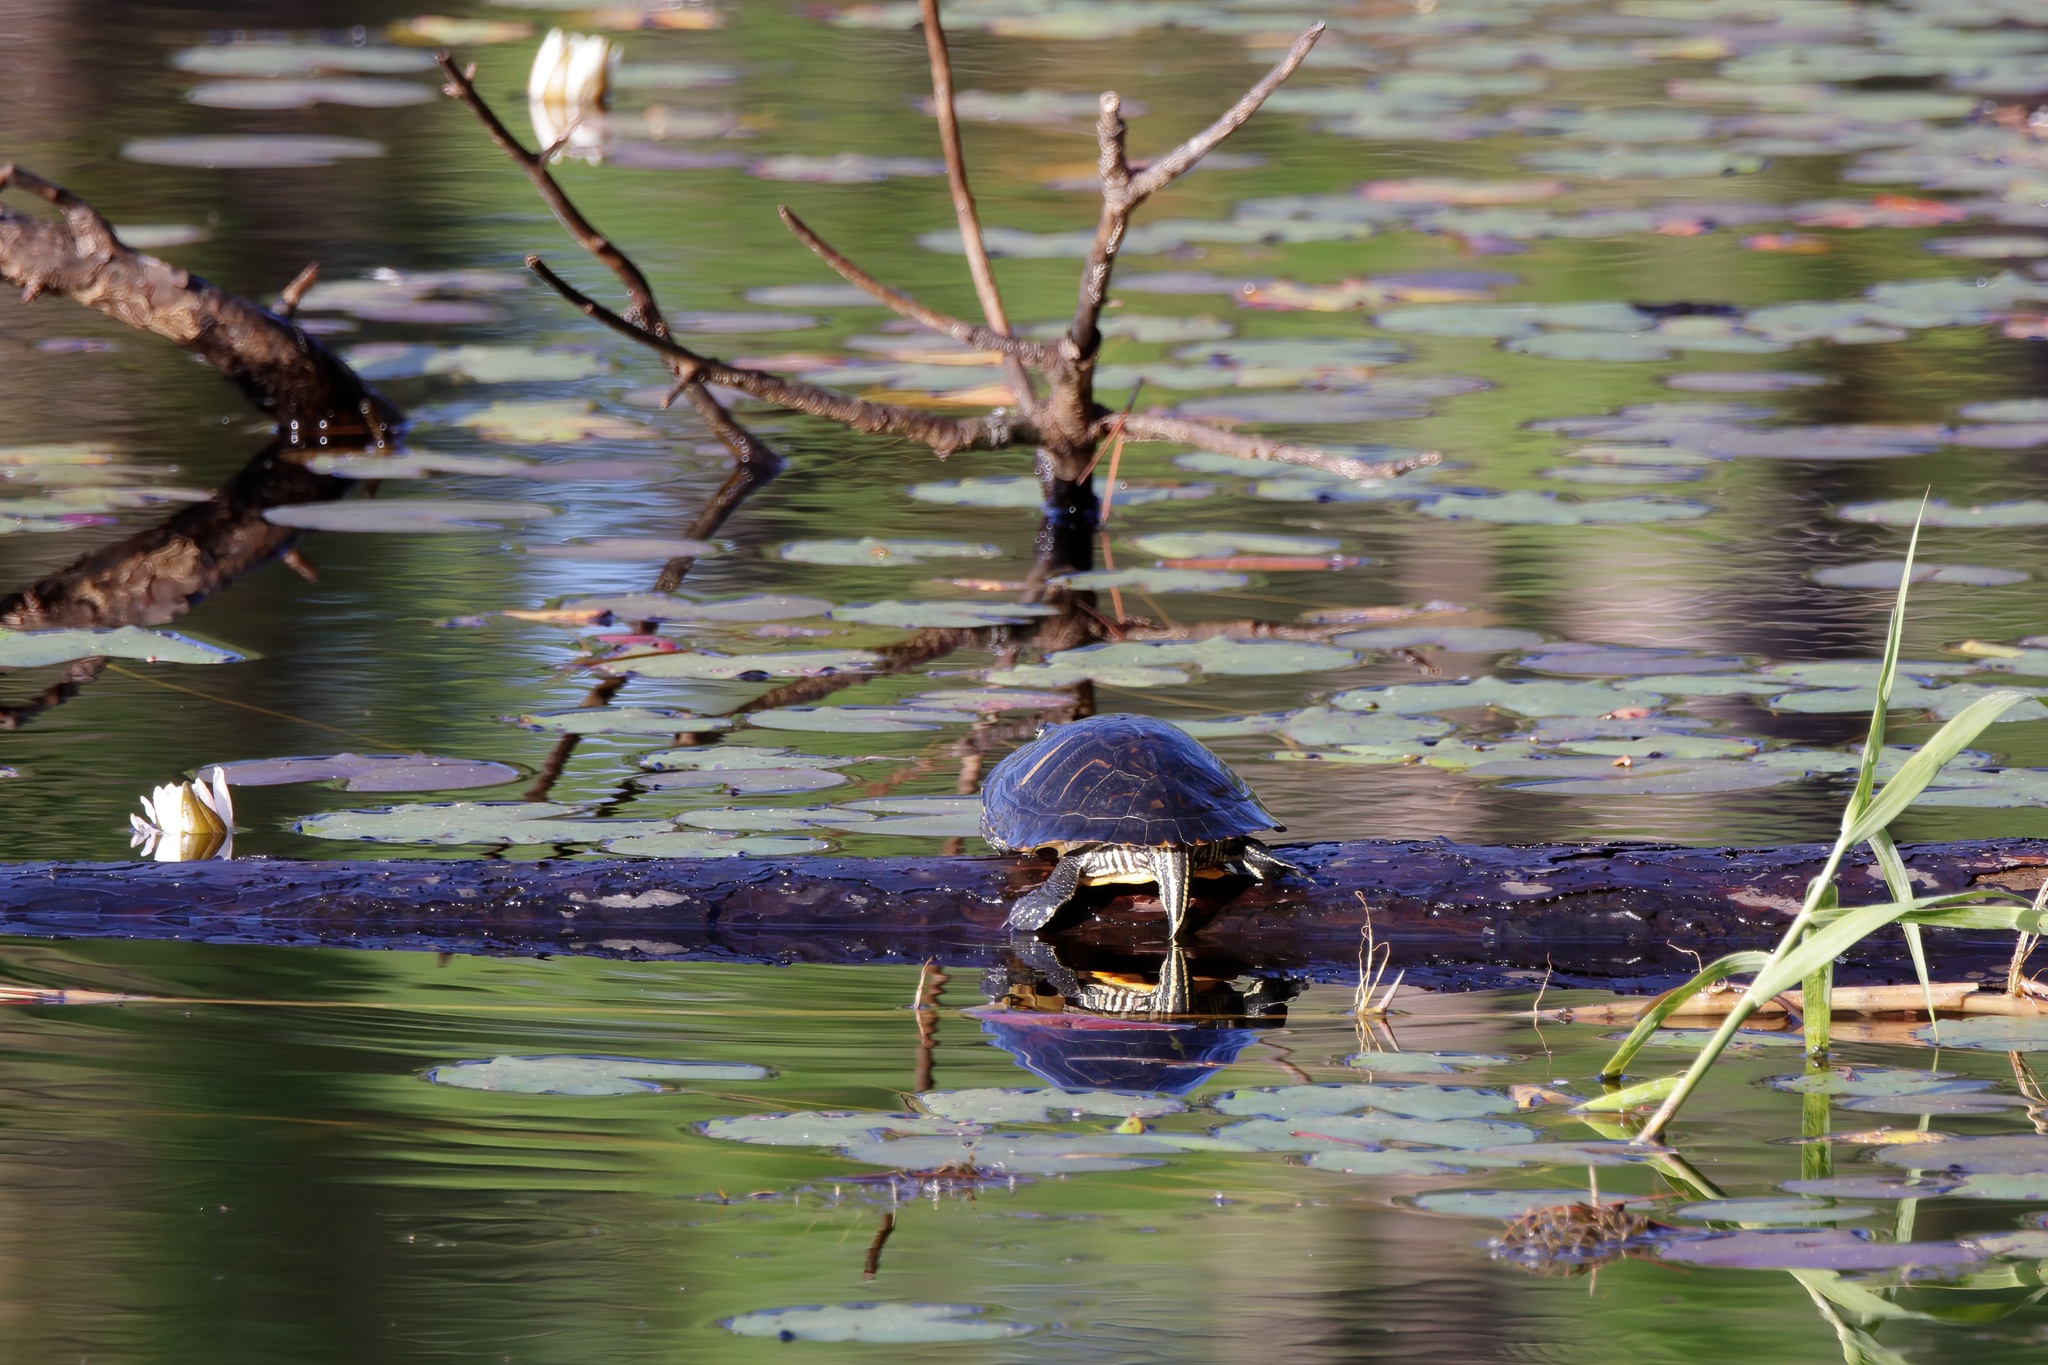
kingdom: Animalia
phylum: Chordata
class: Testudines
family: Emydidae
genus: Trachemys
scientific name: Trachemys scripta
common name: Slider
